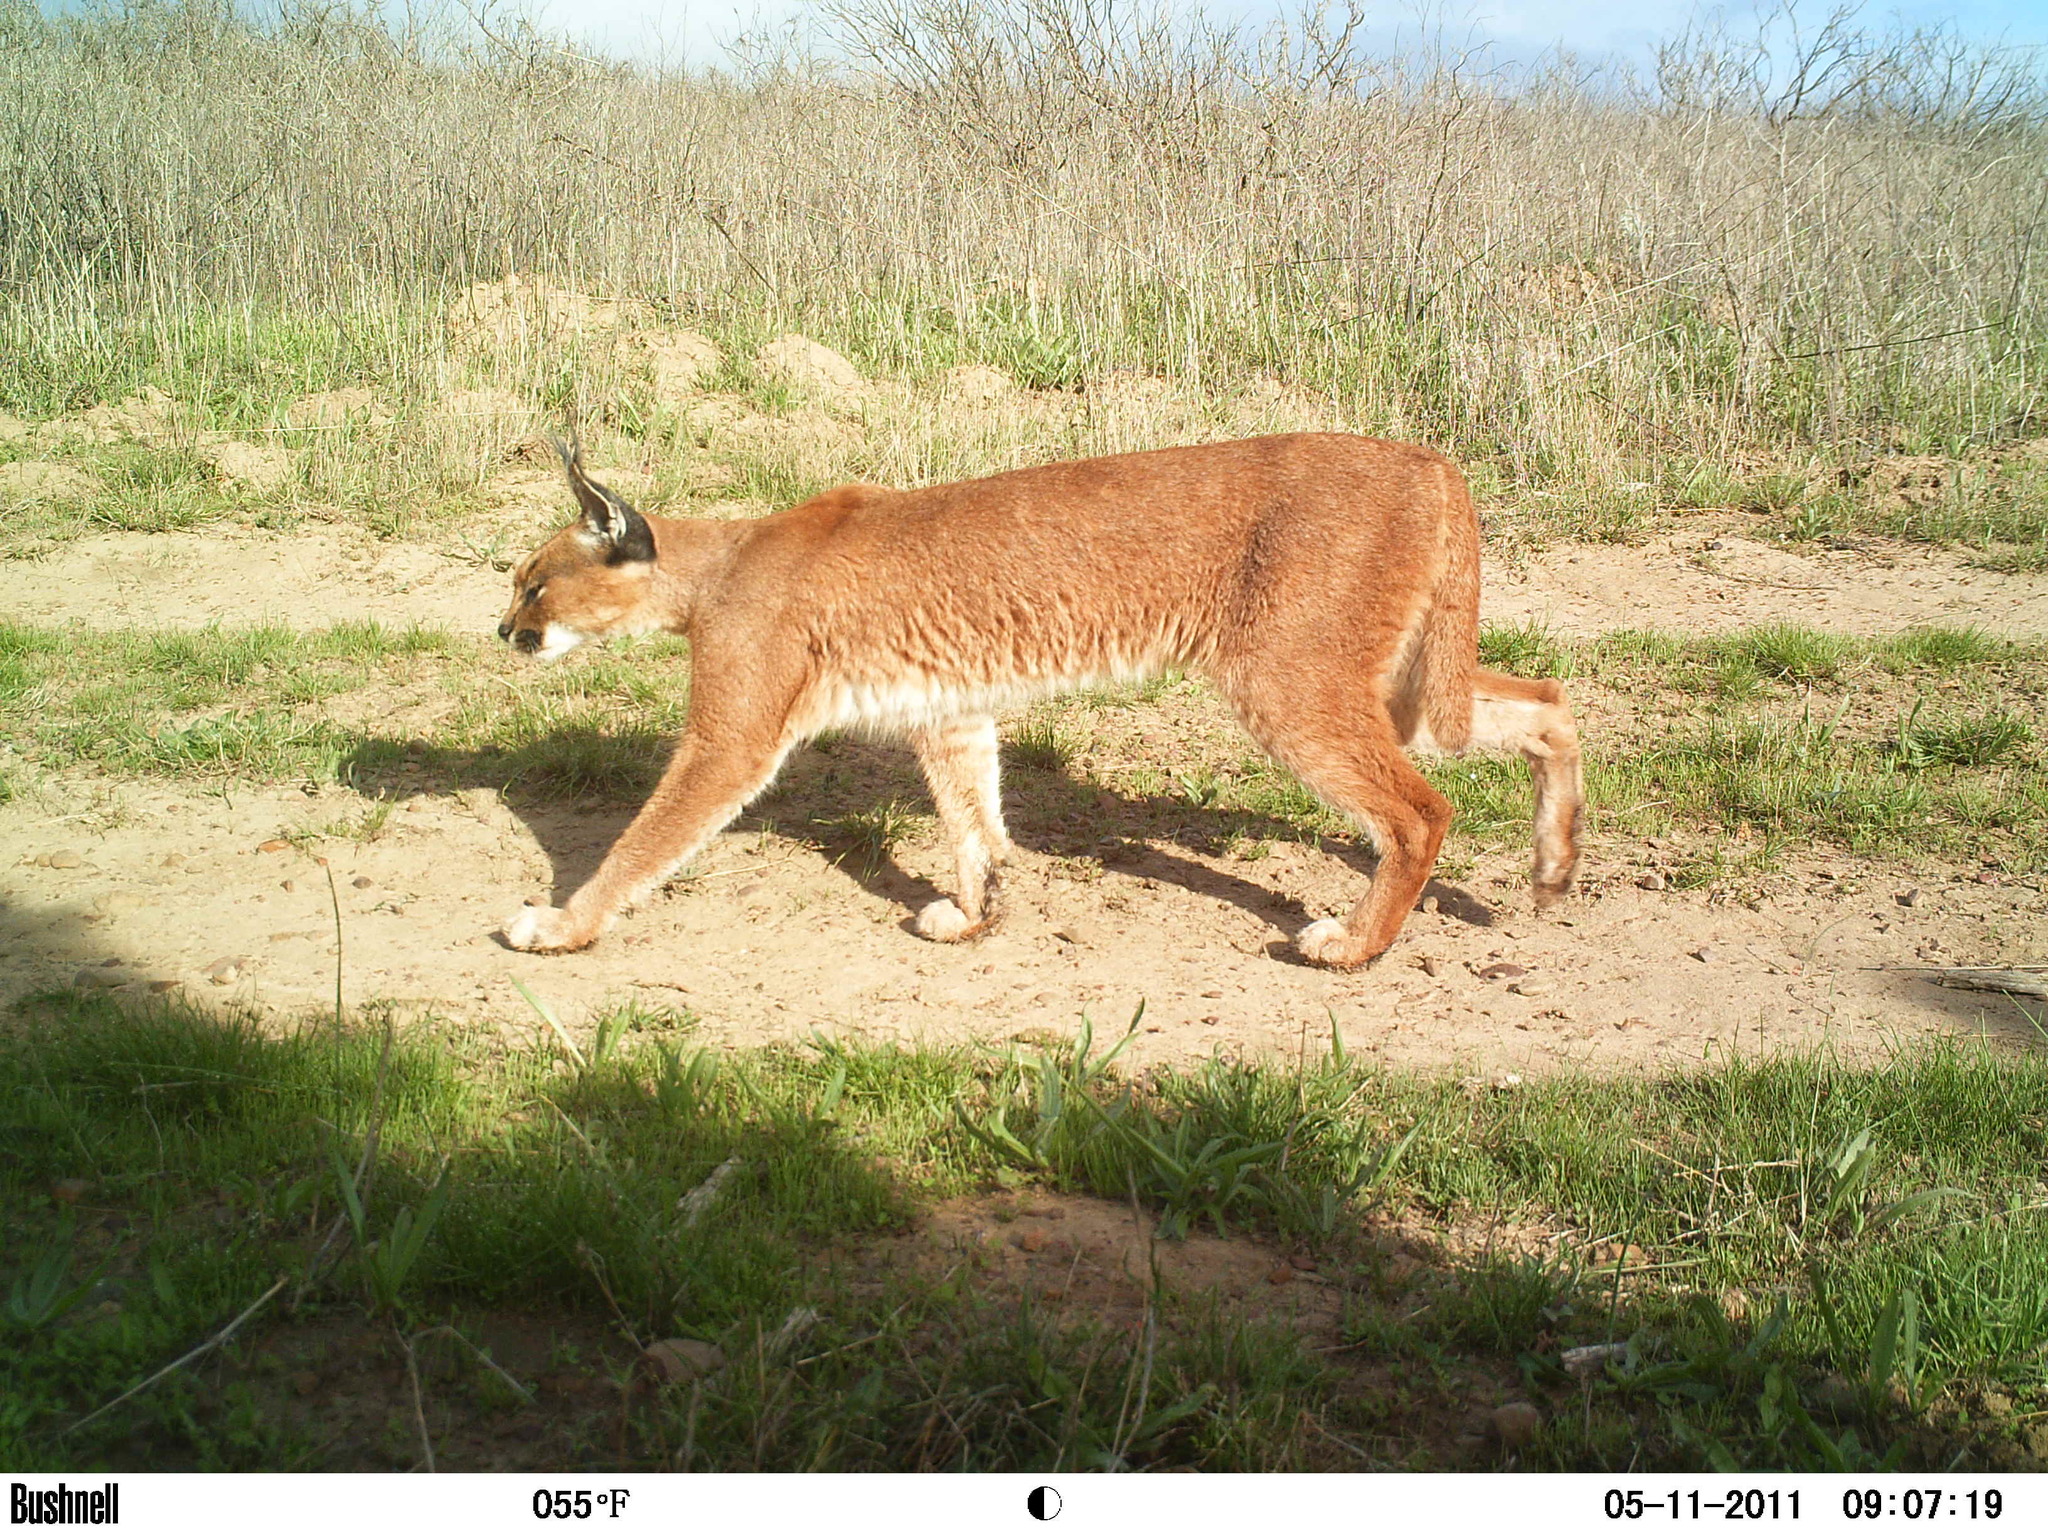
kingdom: Animalia
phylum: Chordata
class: Mammalia
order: Carnivora
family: Felidae
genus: Caracal
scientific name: Caracal caracal
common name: Caracal
